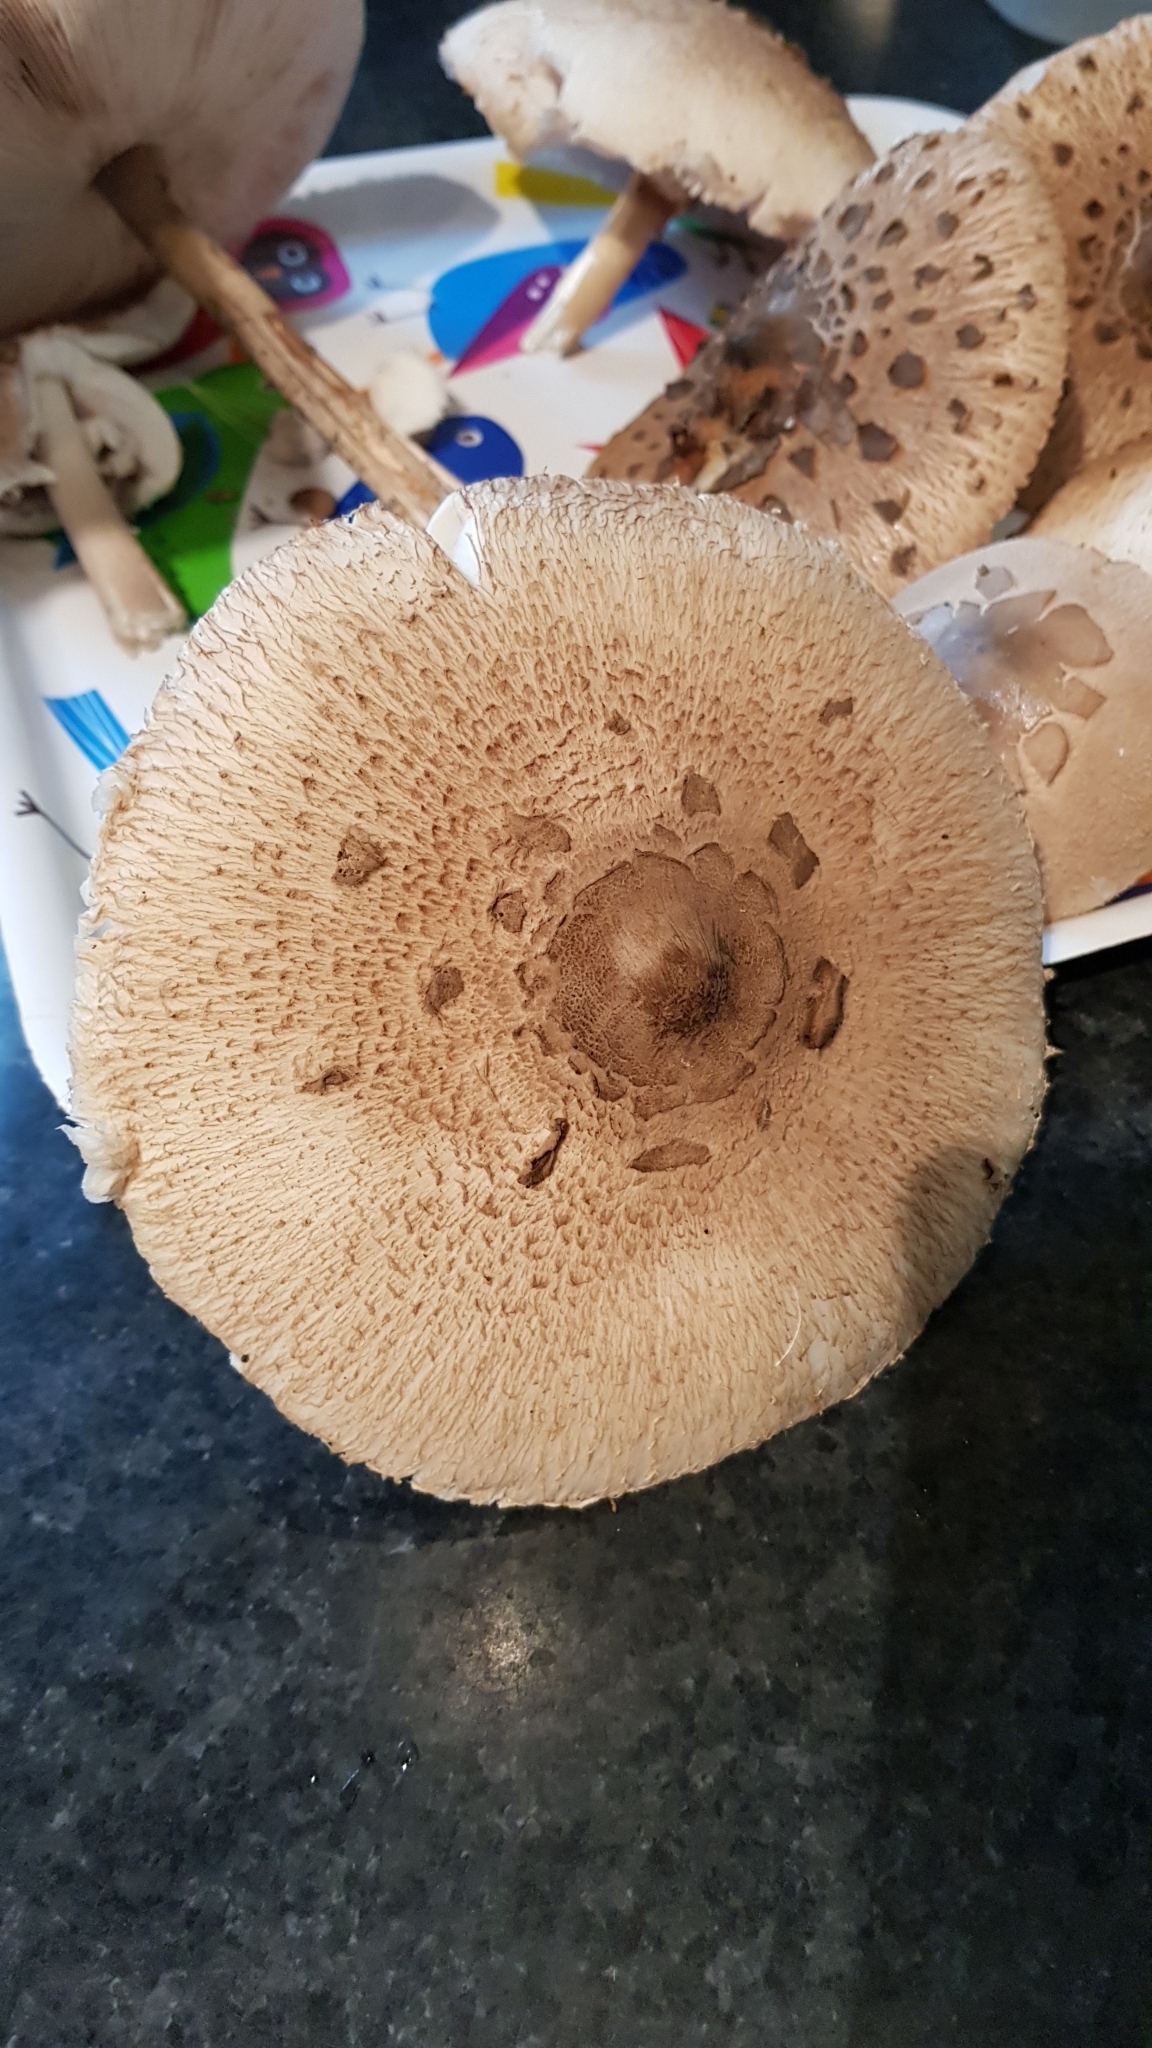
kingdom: Fungi
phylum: Basidiomycota
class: Agaricomycetes
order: Agaricales
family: Agaricaceae
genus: Macrolepiota
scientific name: Macrolepiota procera
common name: Parasol
